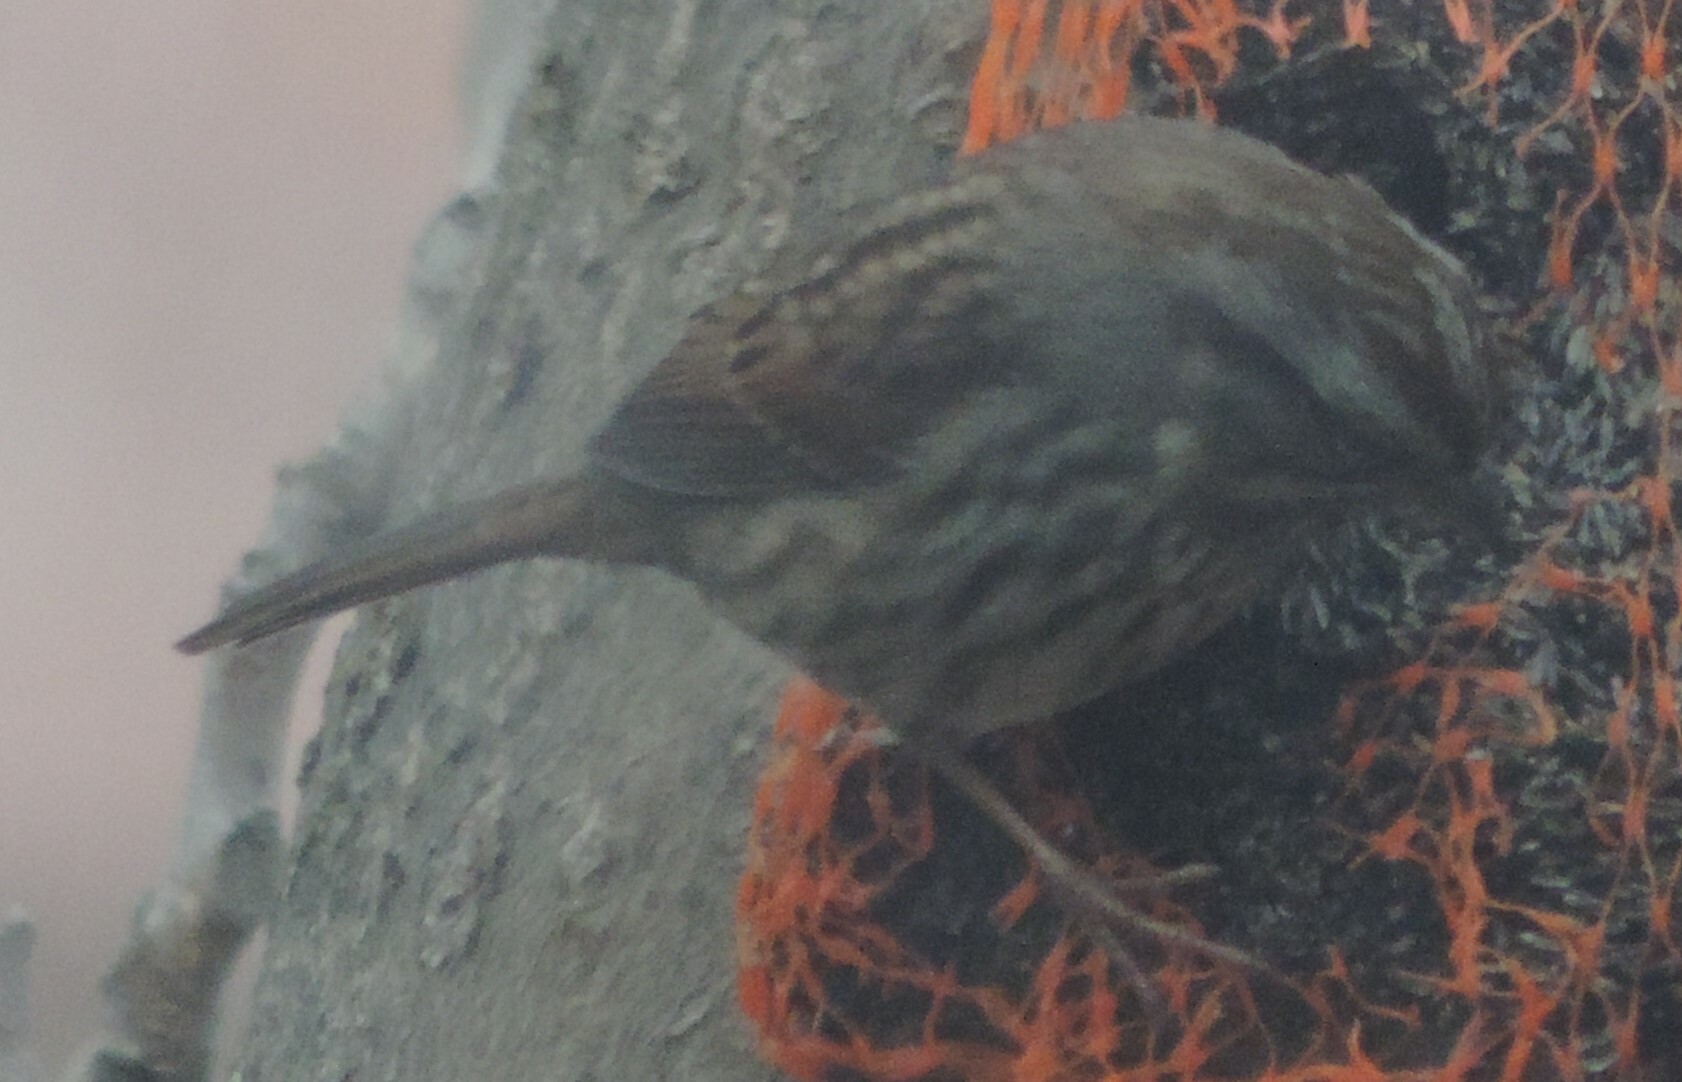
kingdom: Animalia
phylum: Chordata
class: Aves
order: Passeriformes
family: Passerellidae
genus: Melospiza
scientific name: Melospiza melodia
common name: Song sparrow
